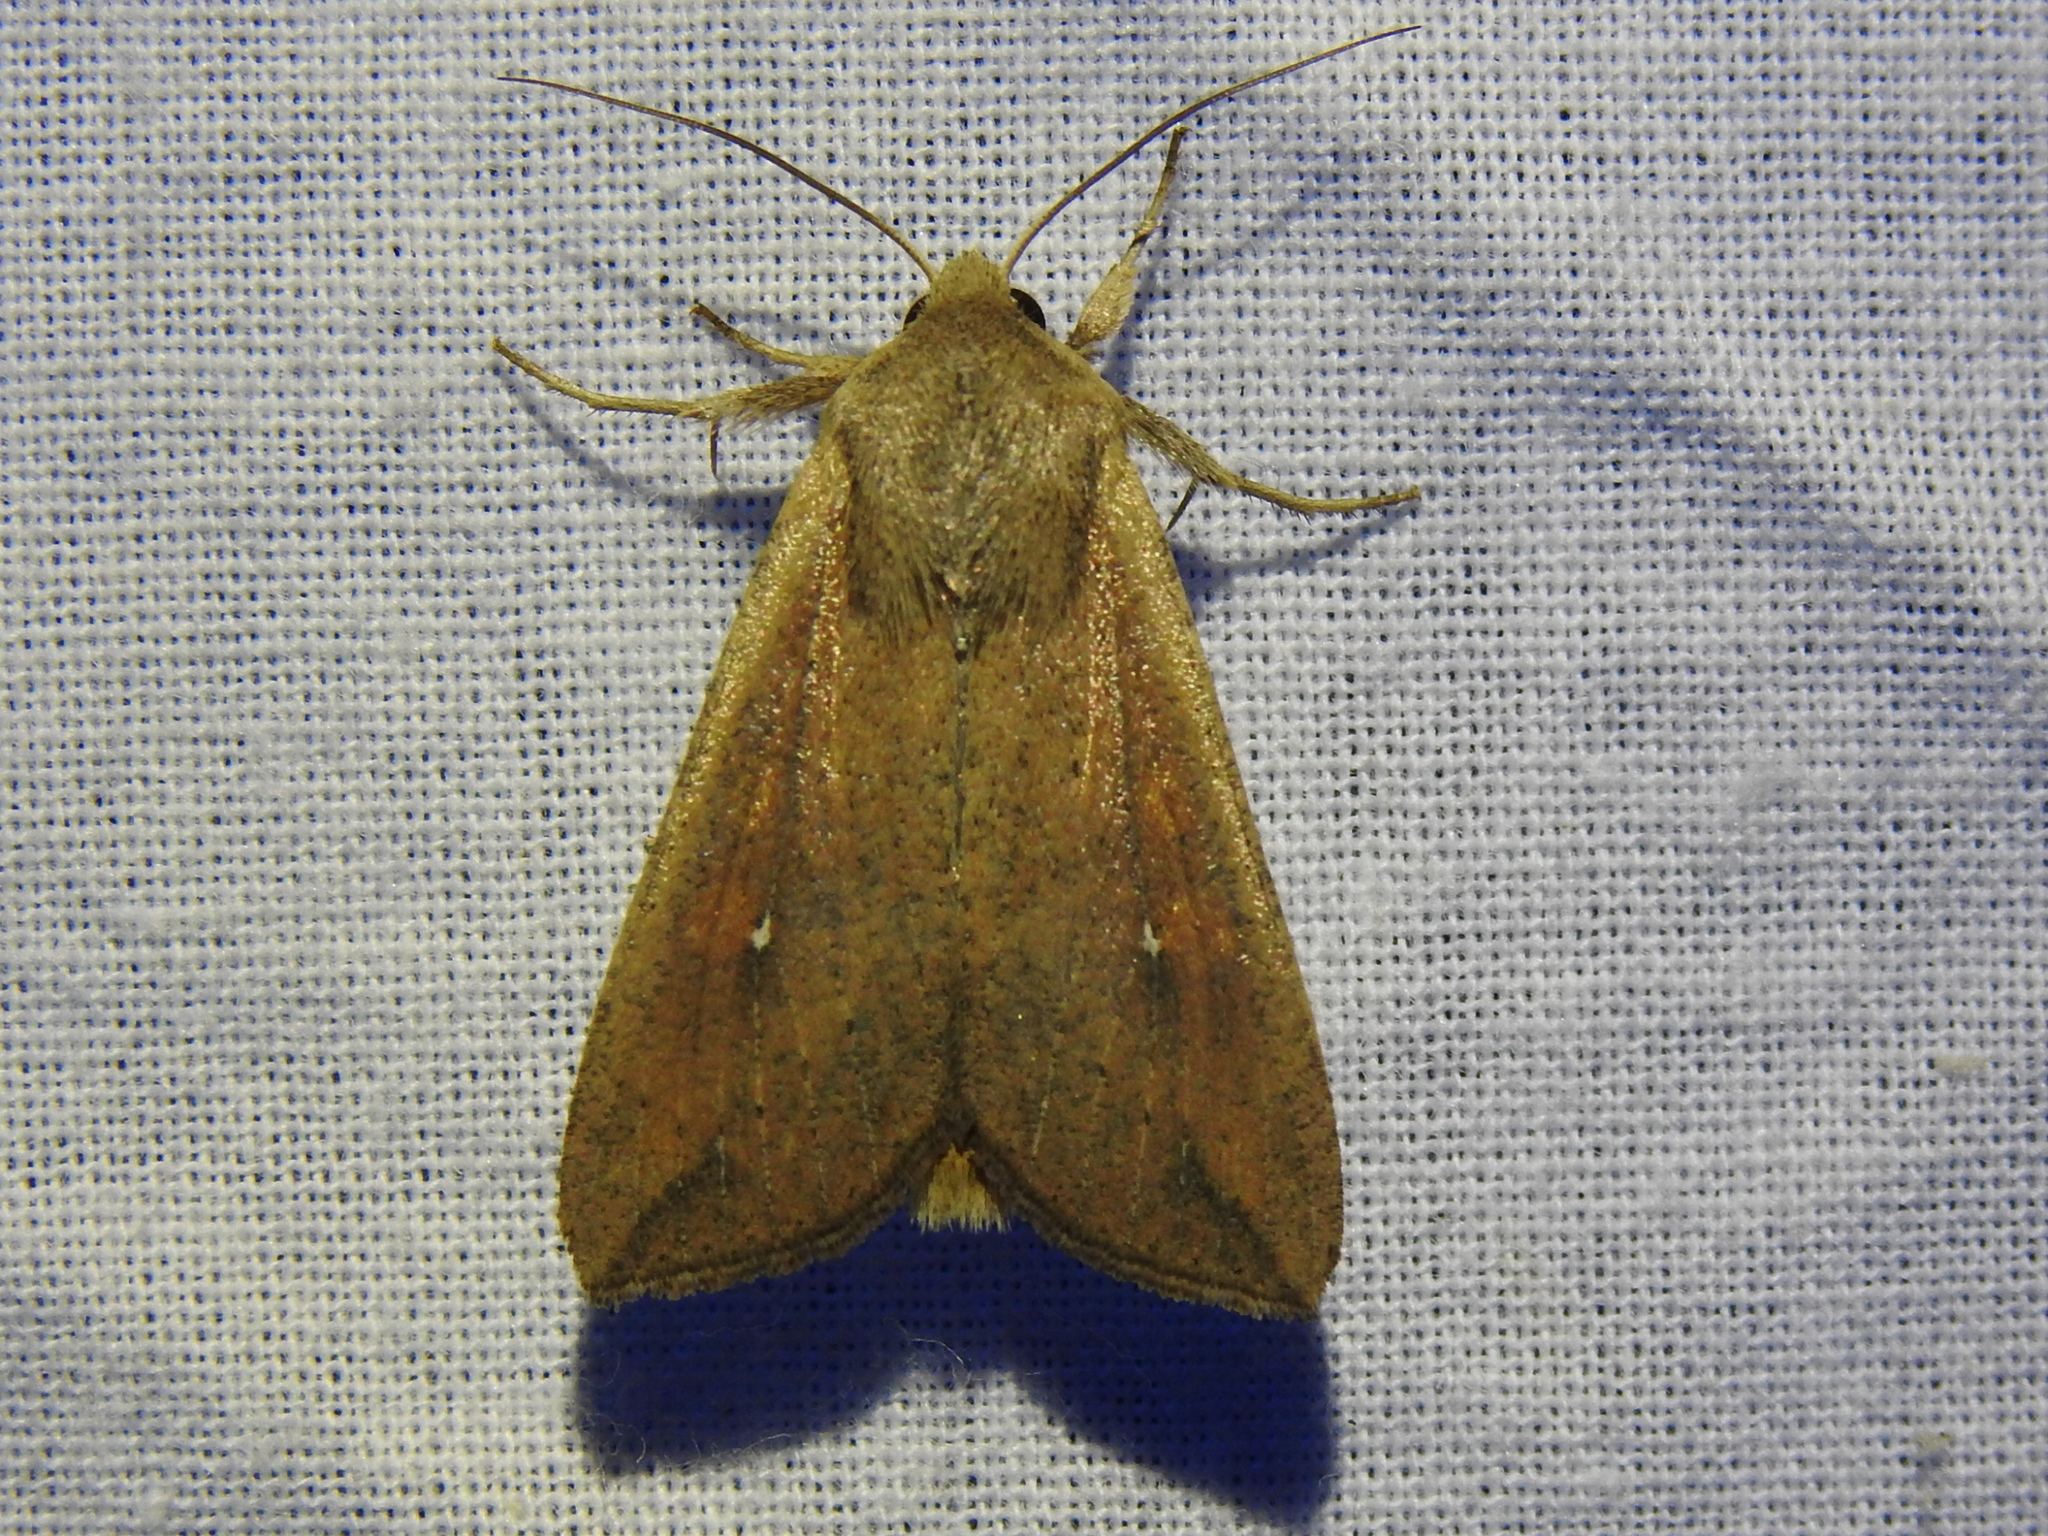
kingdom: Animalia
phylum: Arthropoda
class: Insecta
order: Lepidoptera
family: Noctuidae
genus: Mythimna
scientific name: Mythimna unipuncta
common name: White-speck
